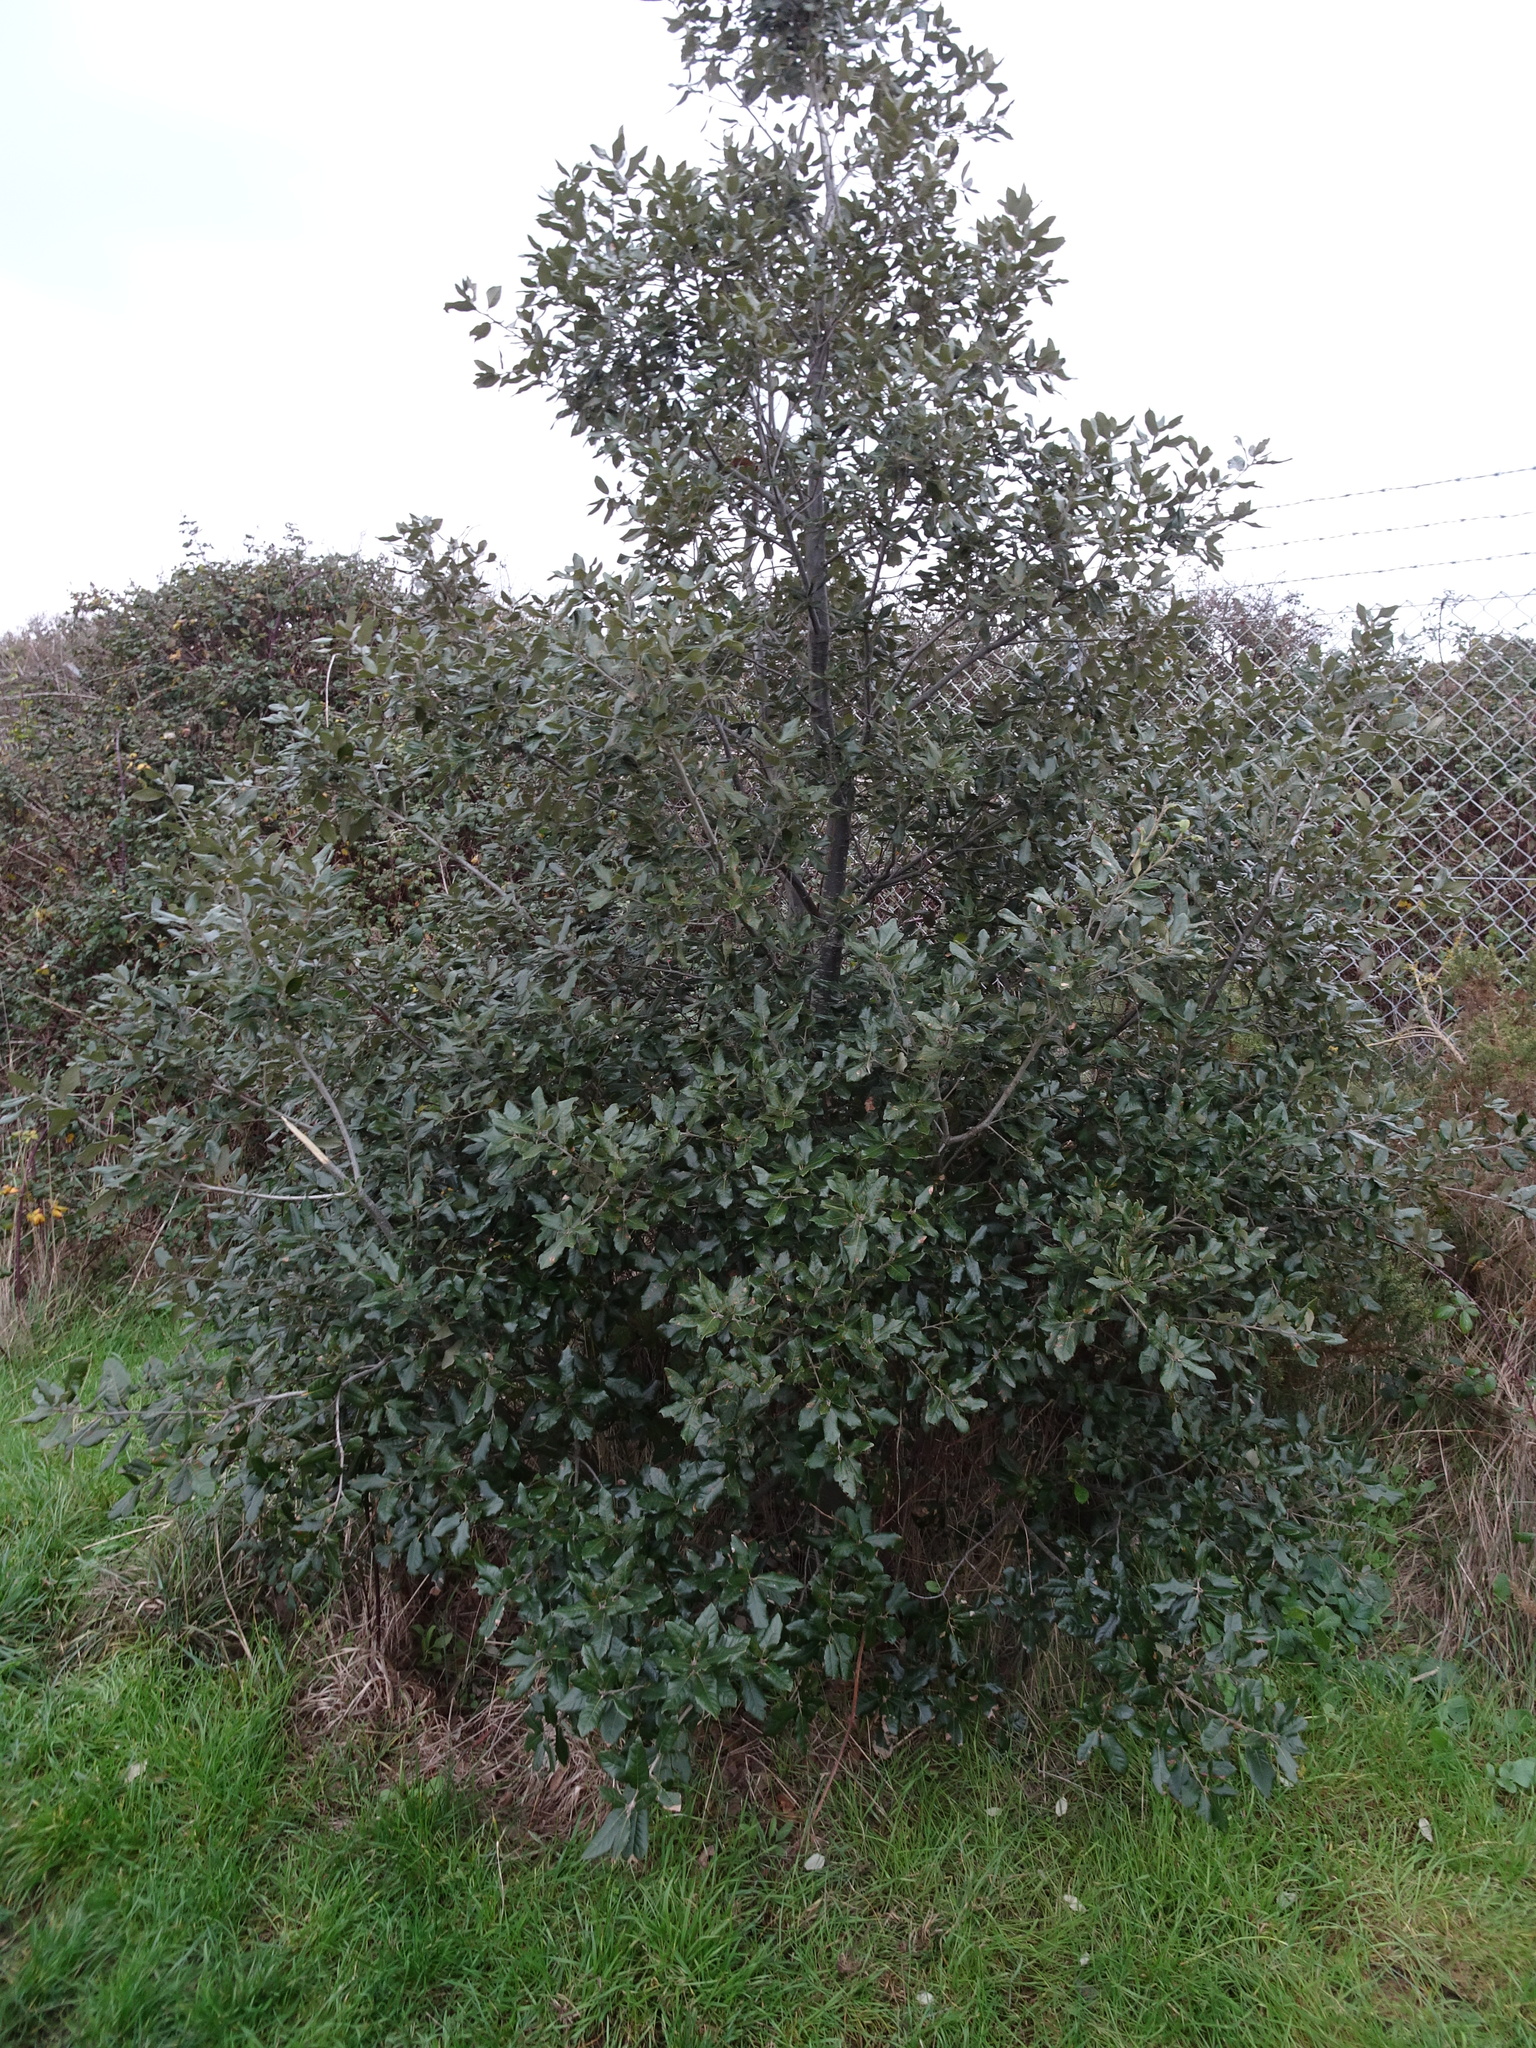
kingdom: Plantae
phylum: Tracheophyta
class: Magnoliopsida
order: Fagales
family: Fagaceae
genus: Quercus
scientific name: Quercus ilex
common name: Evergreen oak
